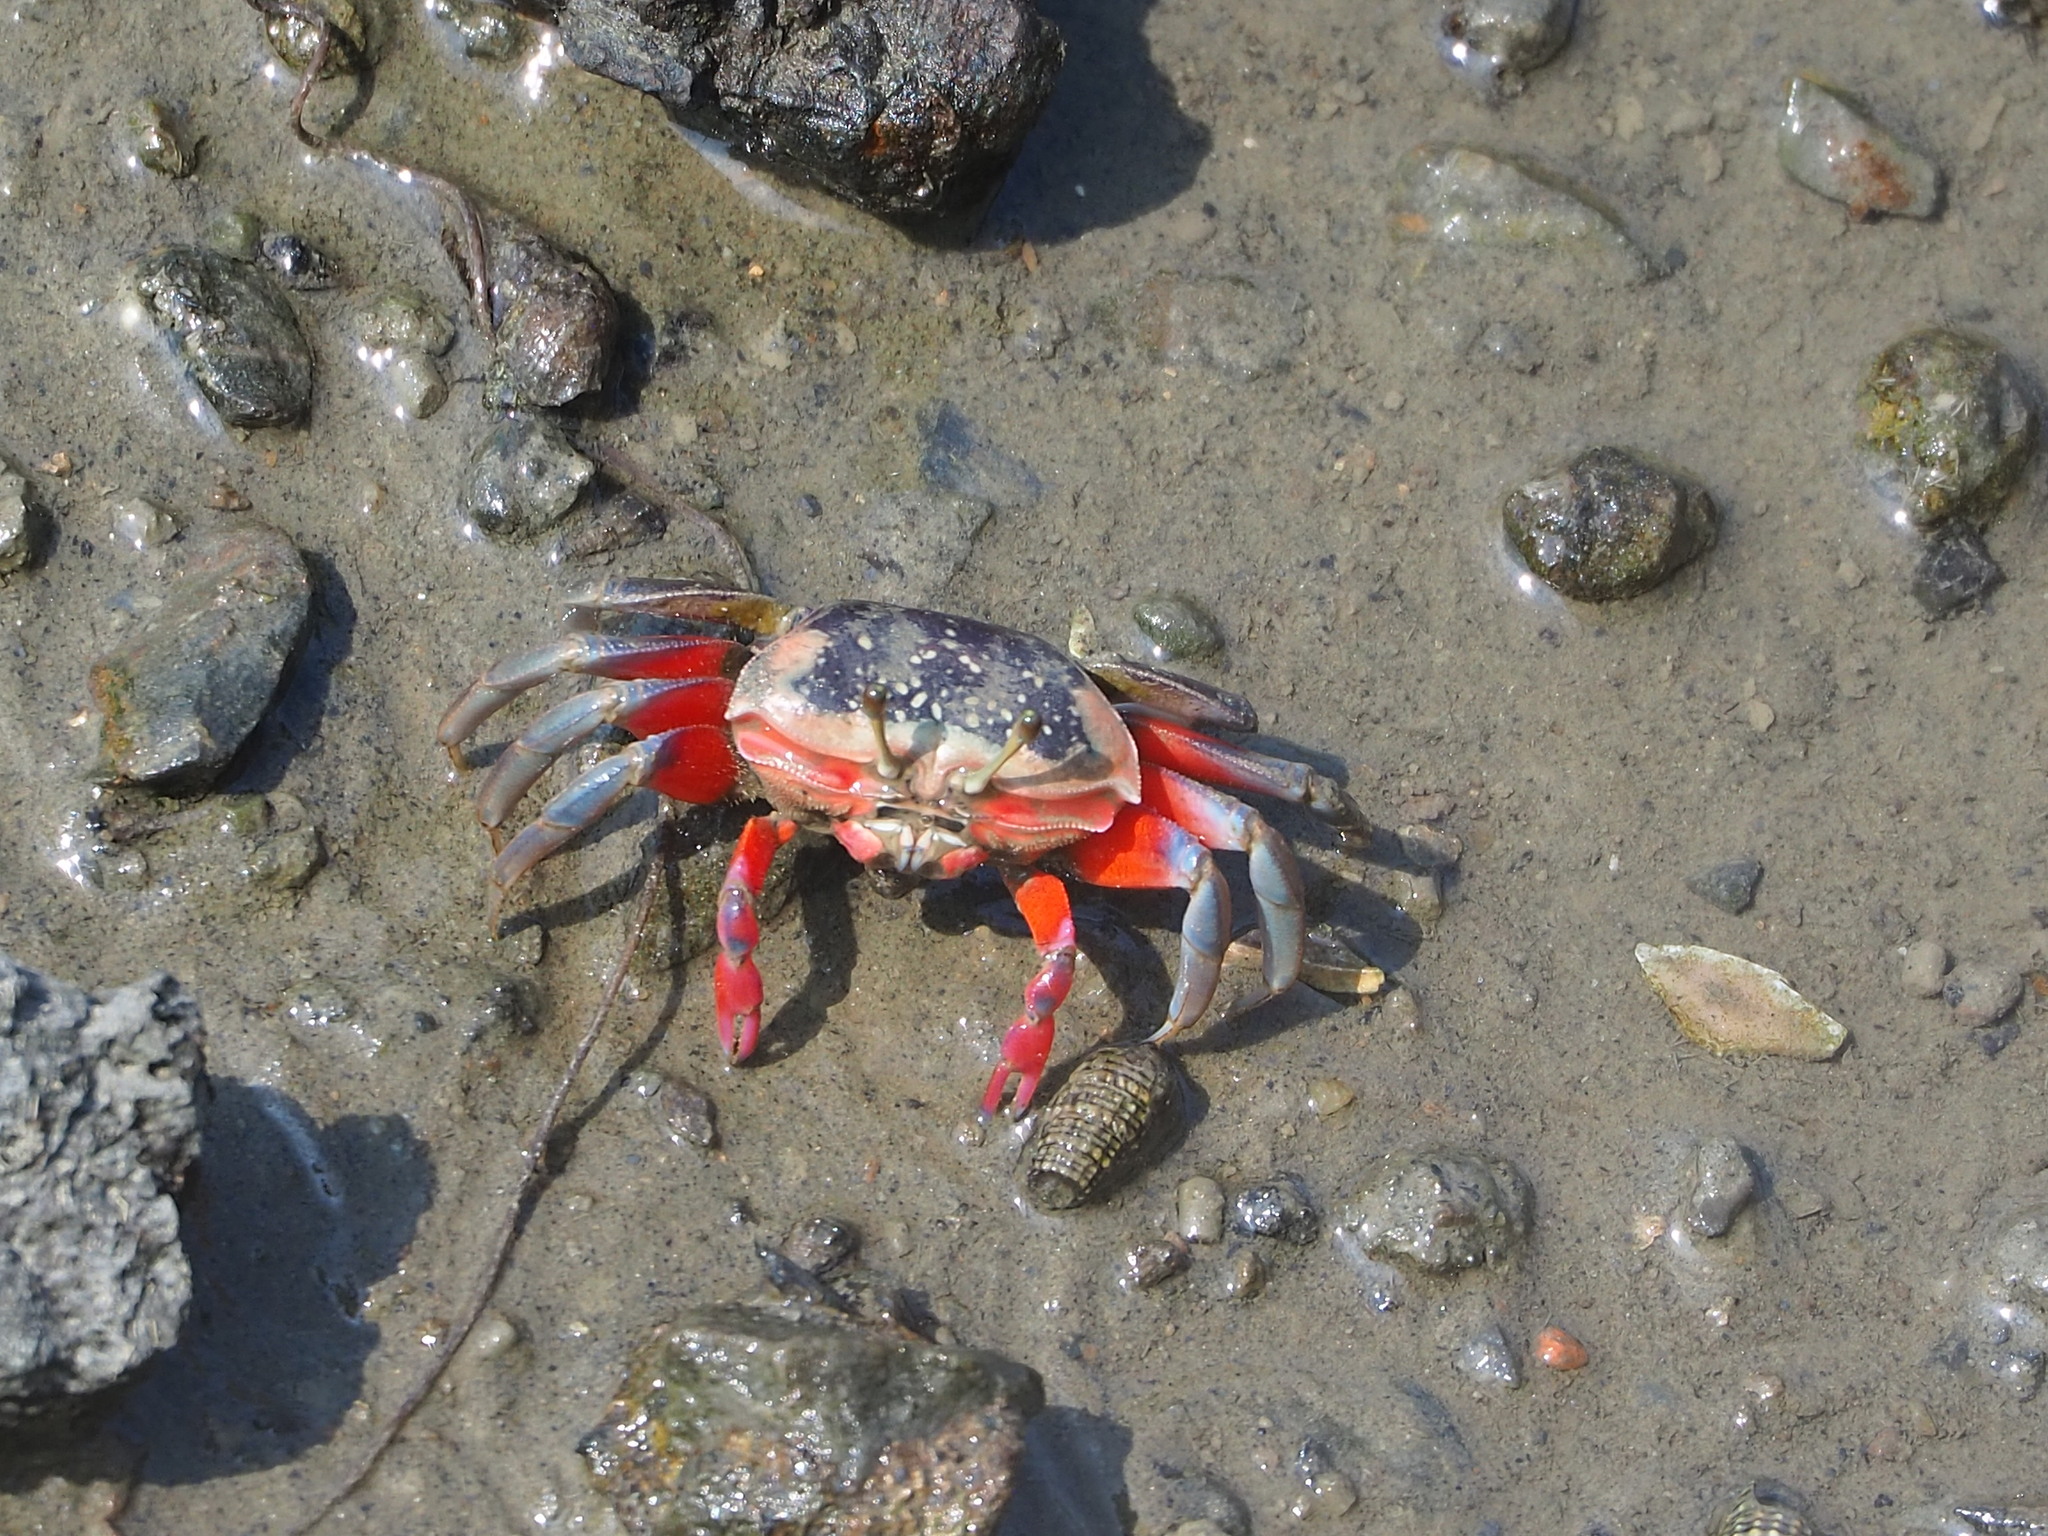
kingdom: Animalia
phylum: Arthropoda
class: Malacostraca
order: Decapoda
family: Ocypodidae
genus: Tubuca
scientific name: Tubuca arcuata
